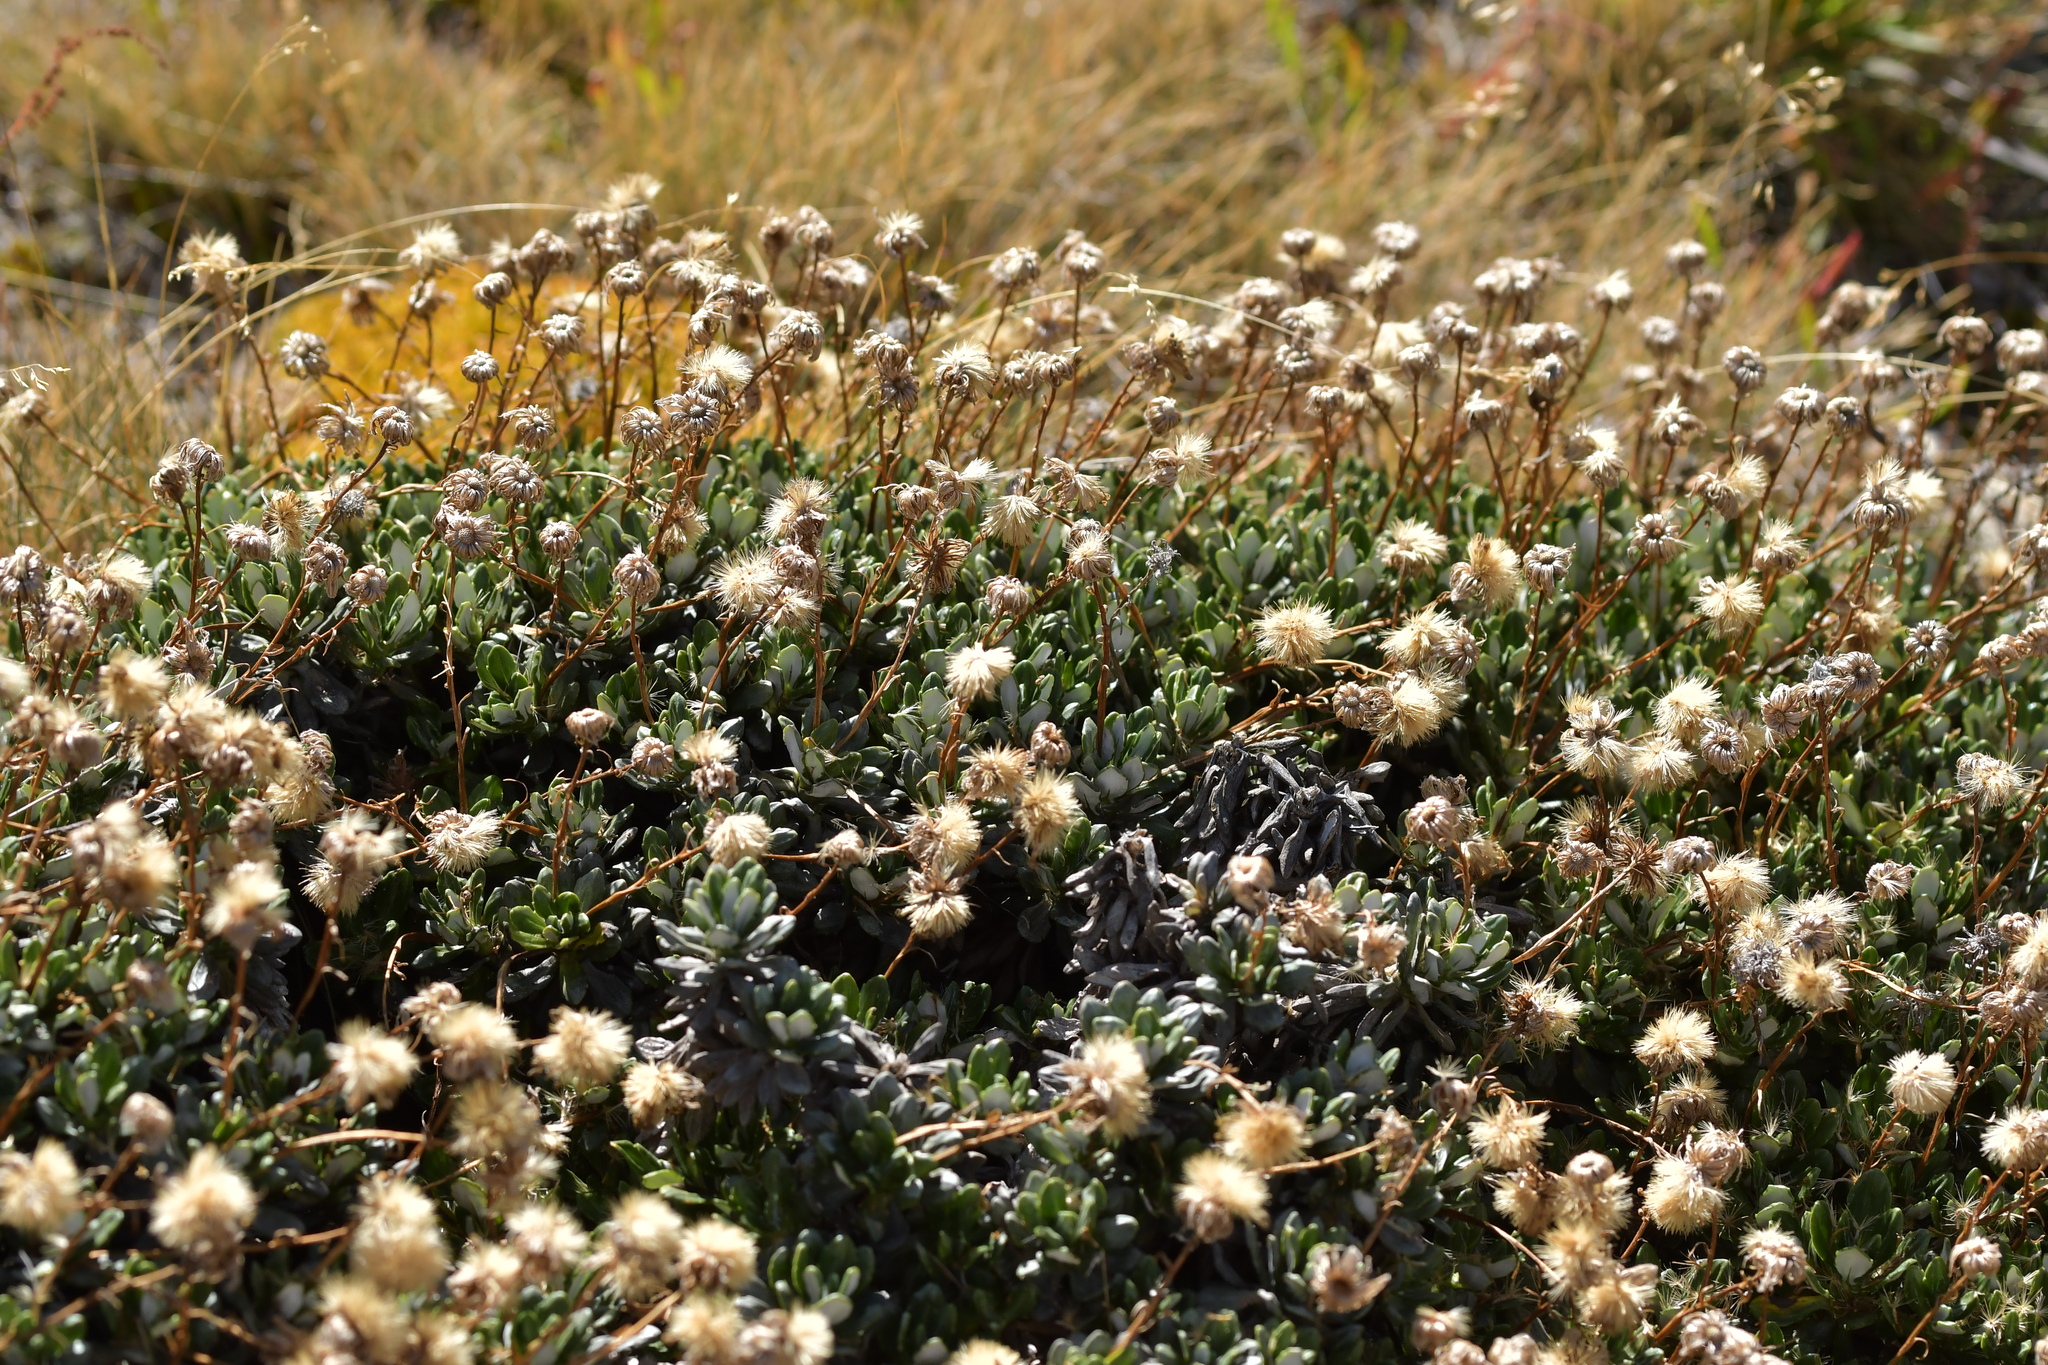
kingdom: Plantae
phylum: Tracheophyta
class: Magnoliopsida
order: Asterales
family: Asteraceae
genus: Celmisia
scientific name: Celmisia brevifolia
